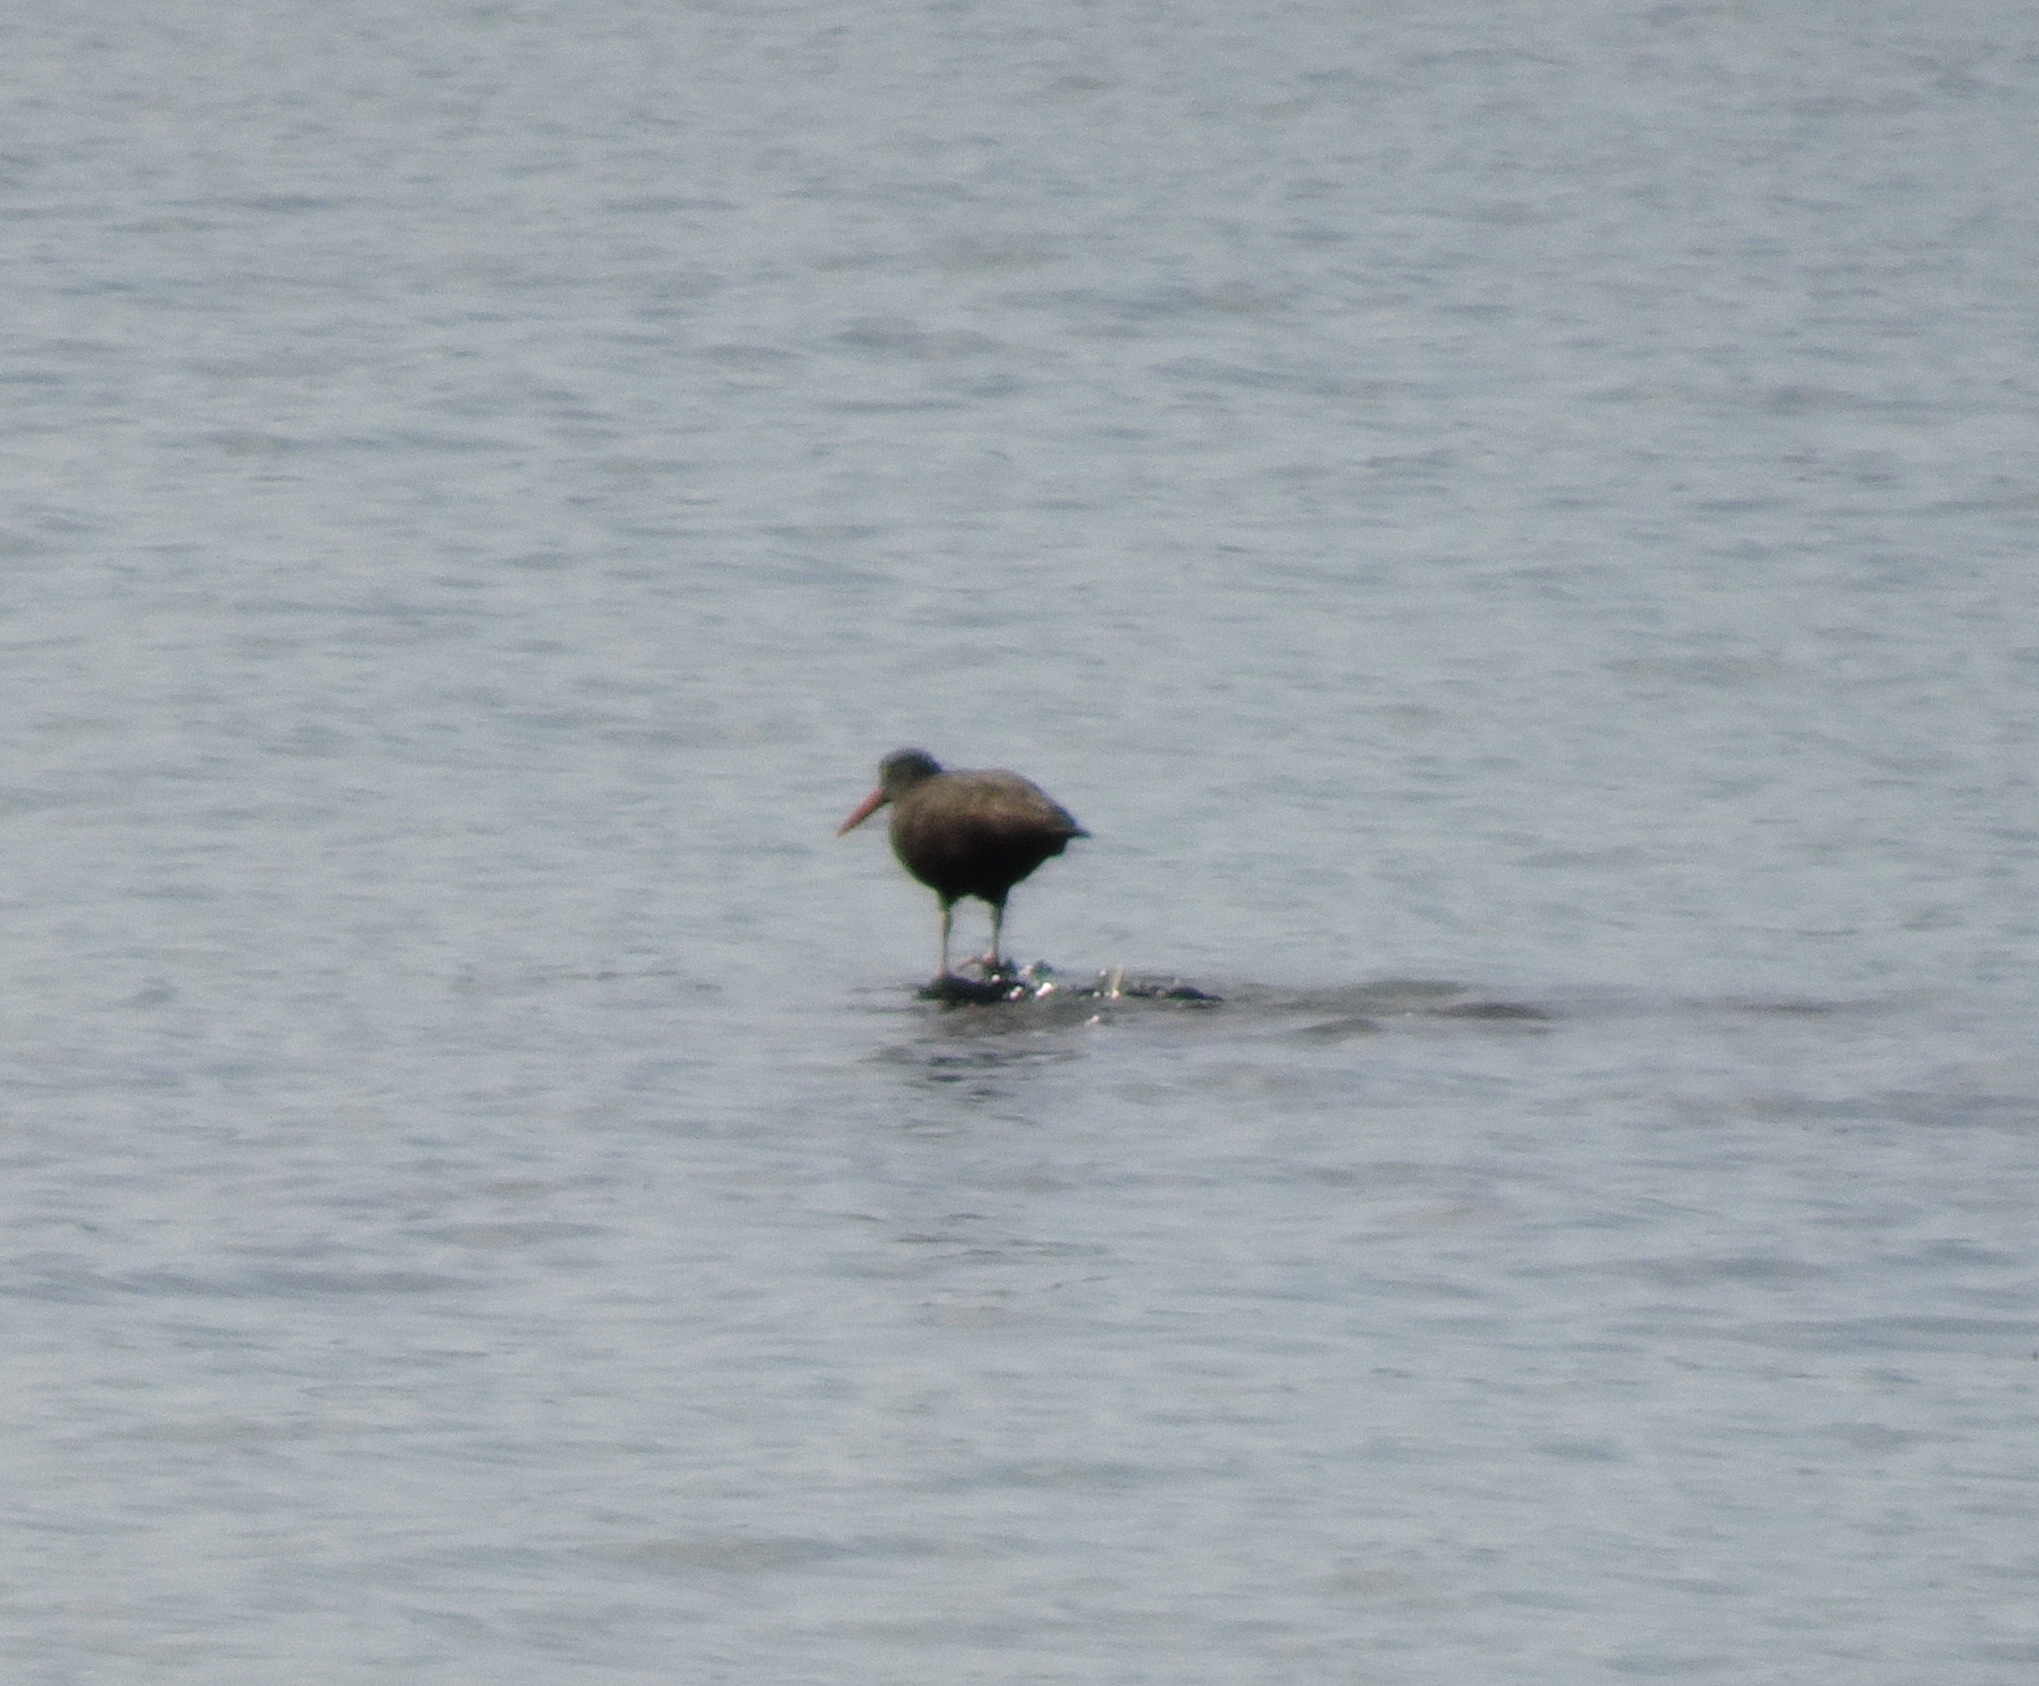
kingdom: Animalia
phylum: Chordata
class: Aves
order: Charadriiformes
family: Haematopodidae
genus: Haematopus
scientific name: Haematopus bachmani
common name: Black oystercatcher
